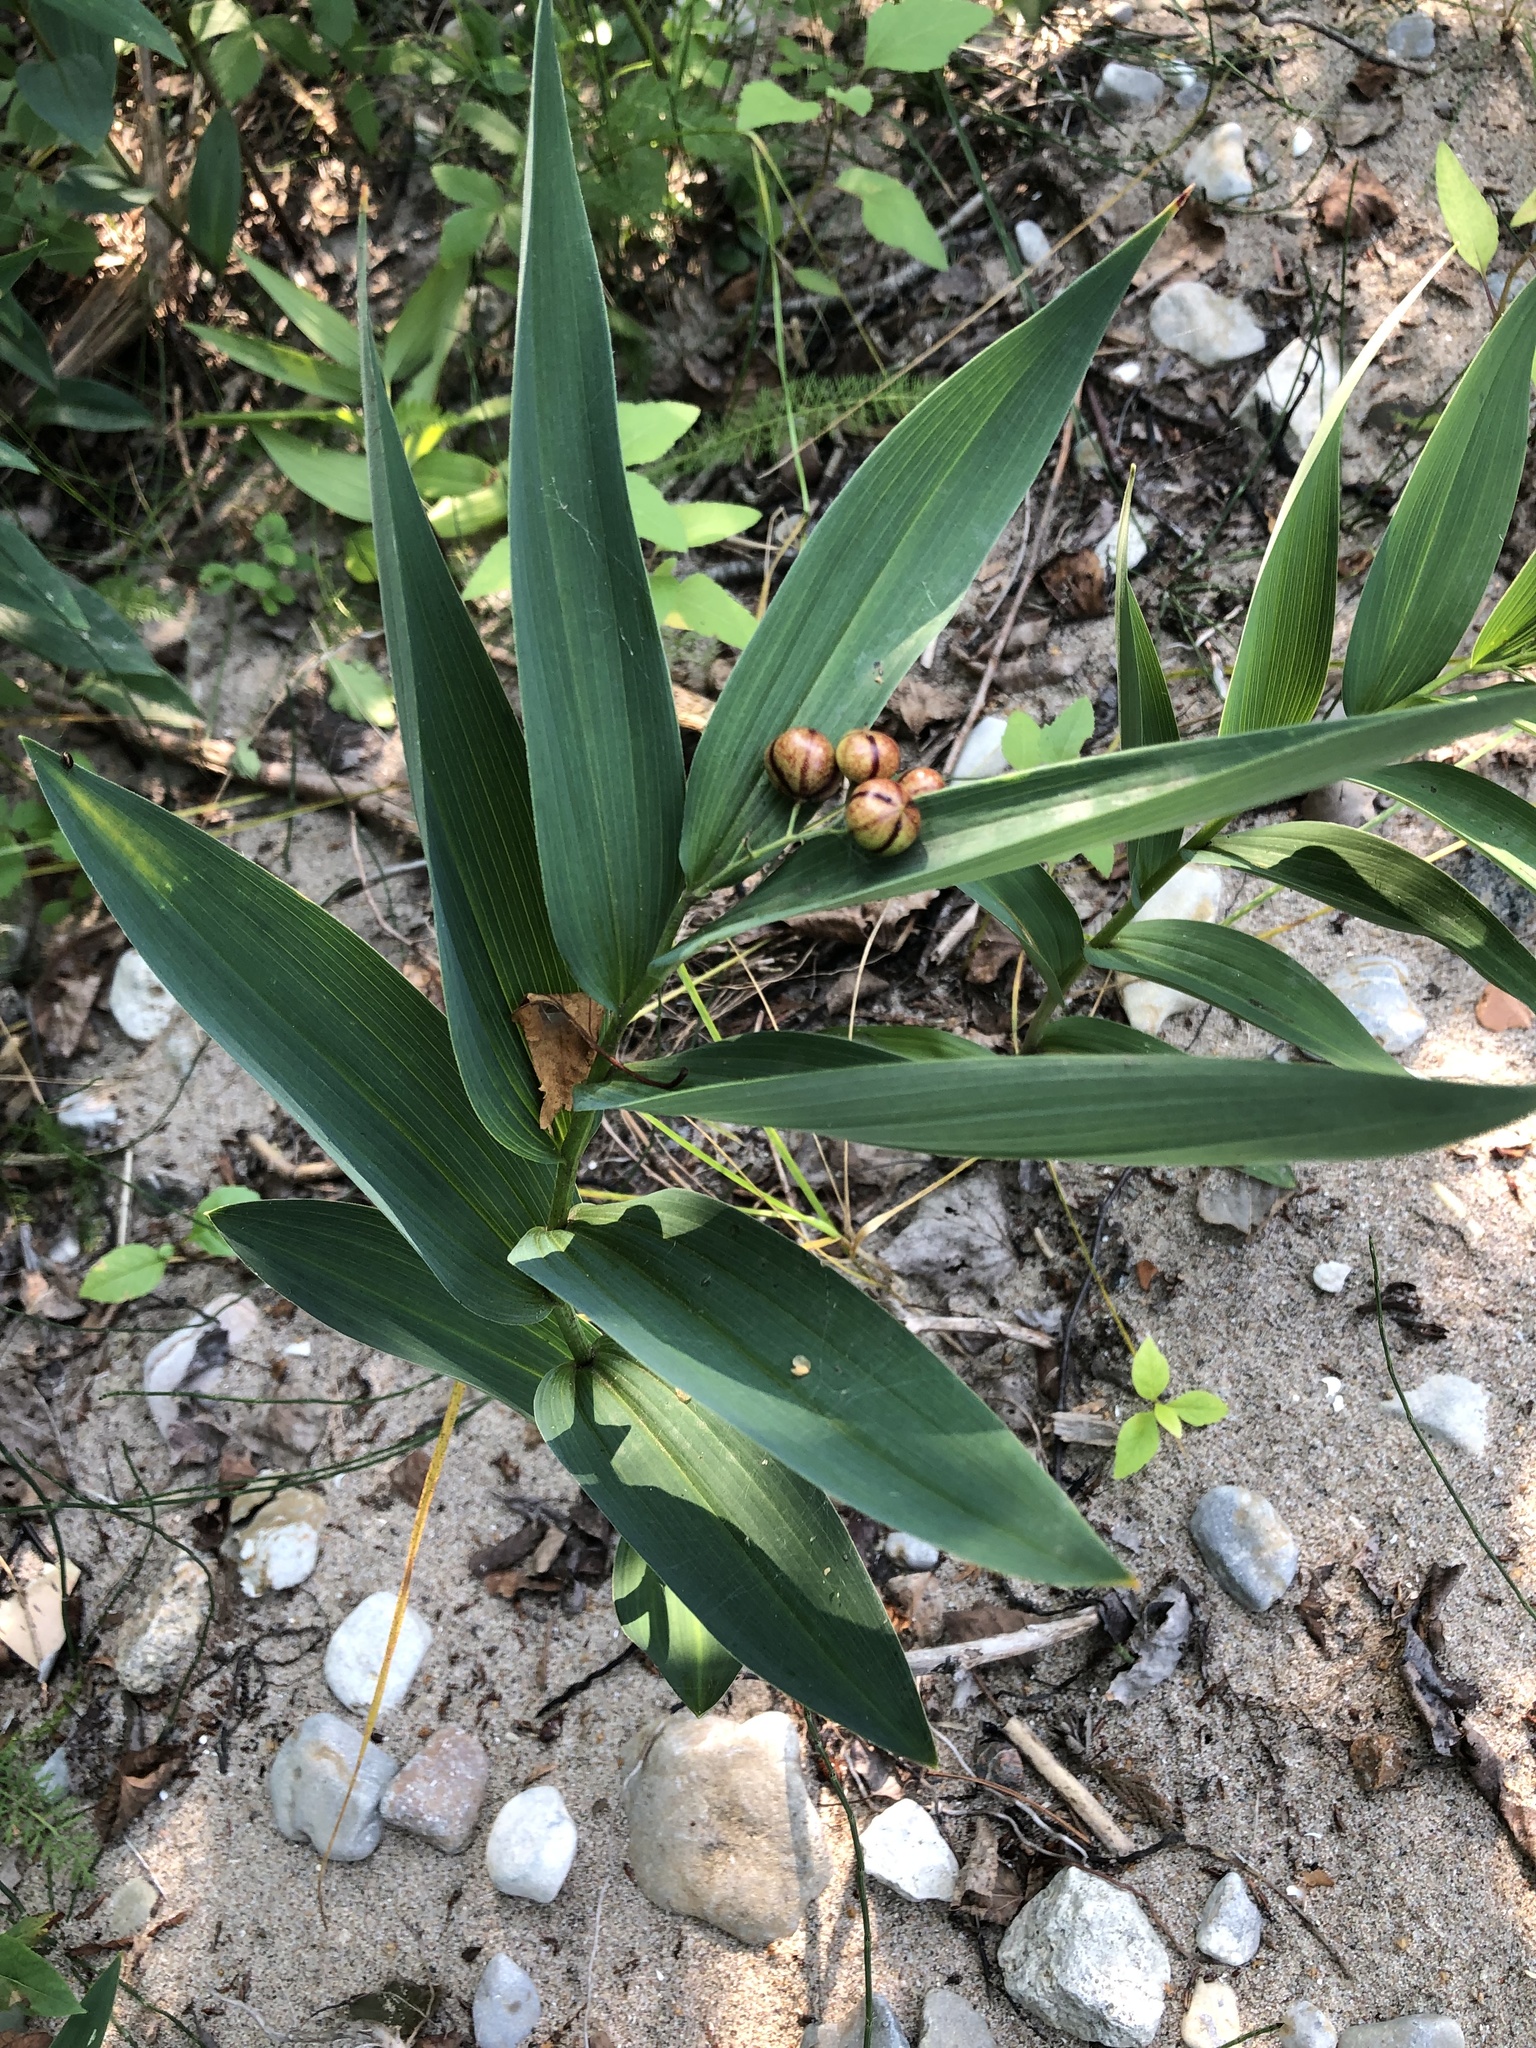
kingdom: Plantae
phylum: Tracheophyta
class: Liliopsida
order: Asparagales
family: Asparagaceae
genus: Maianthemum
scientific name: Maianthemum stellatum
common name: Little false solomon's seal
